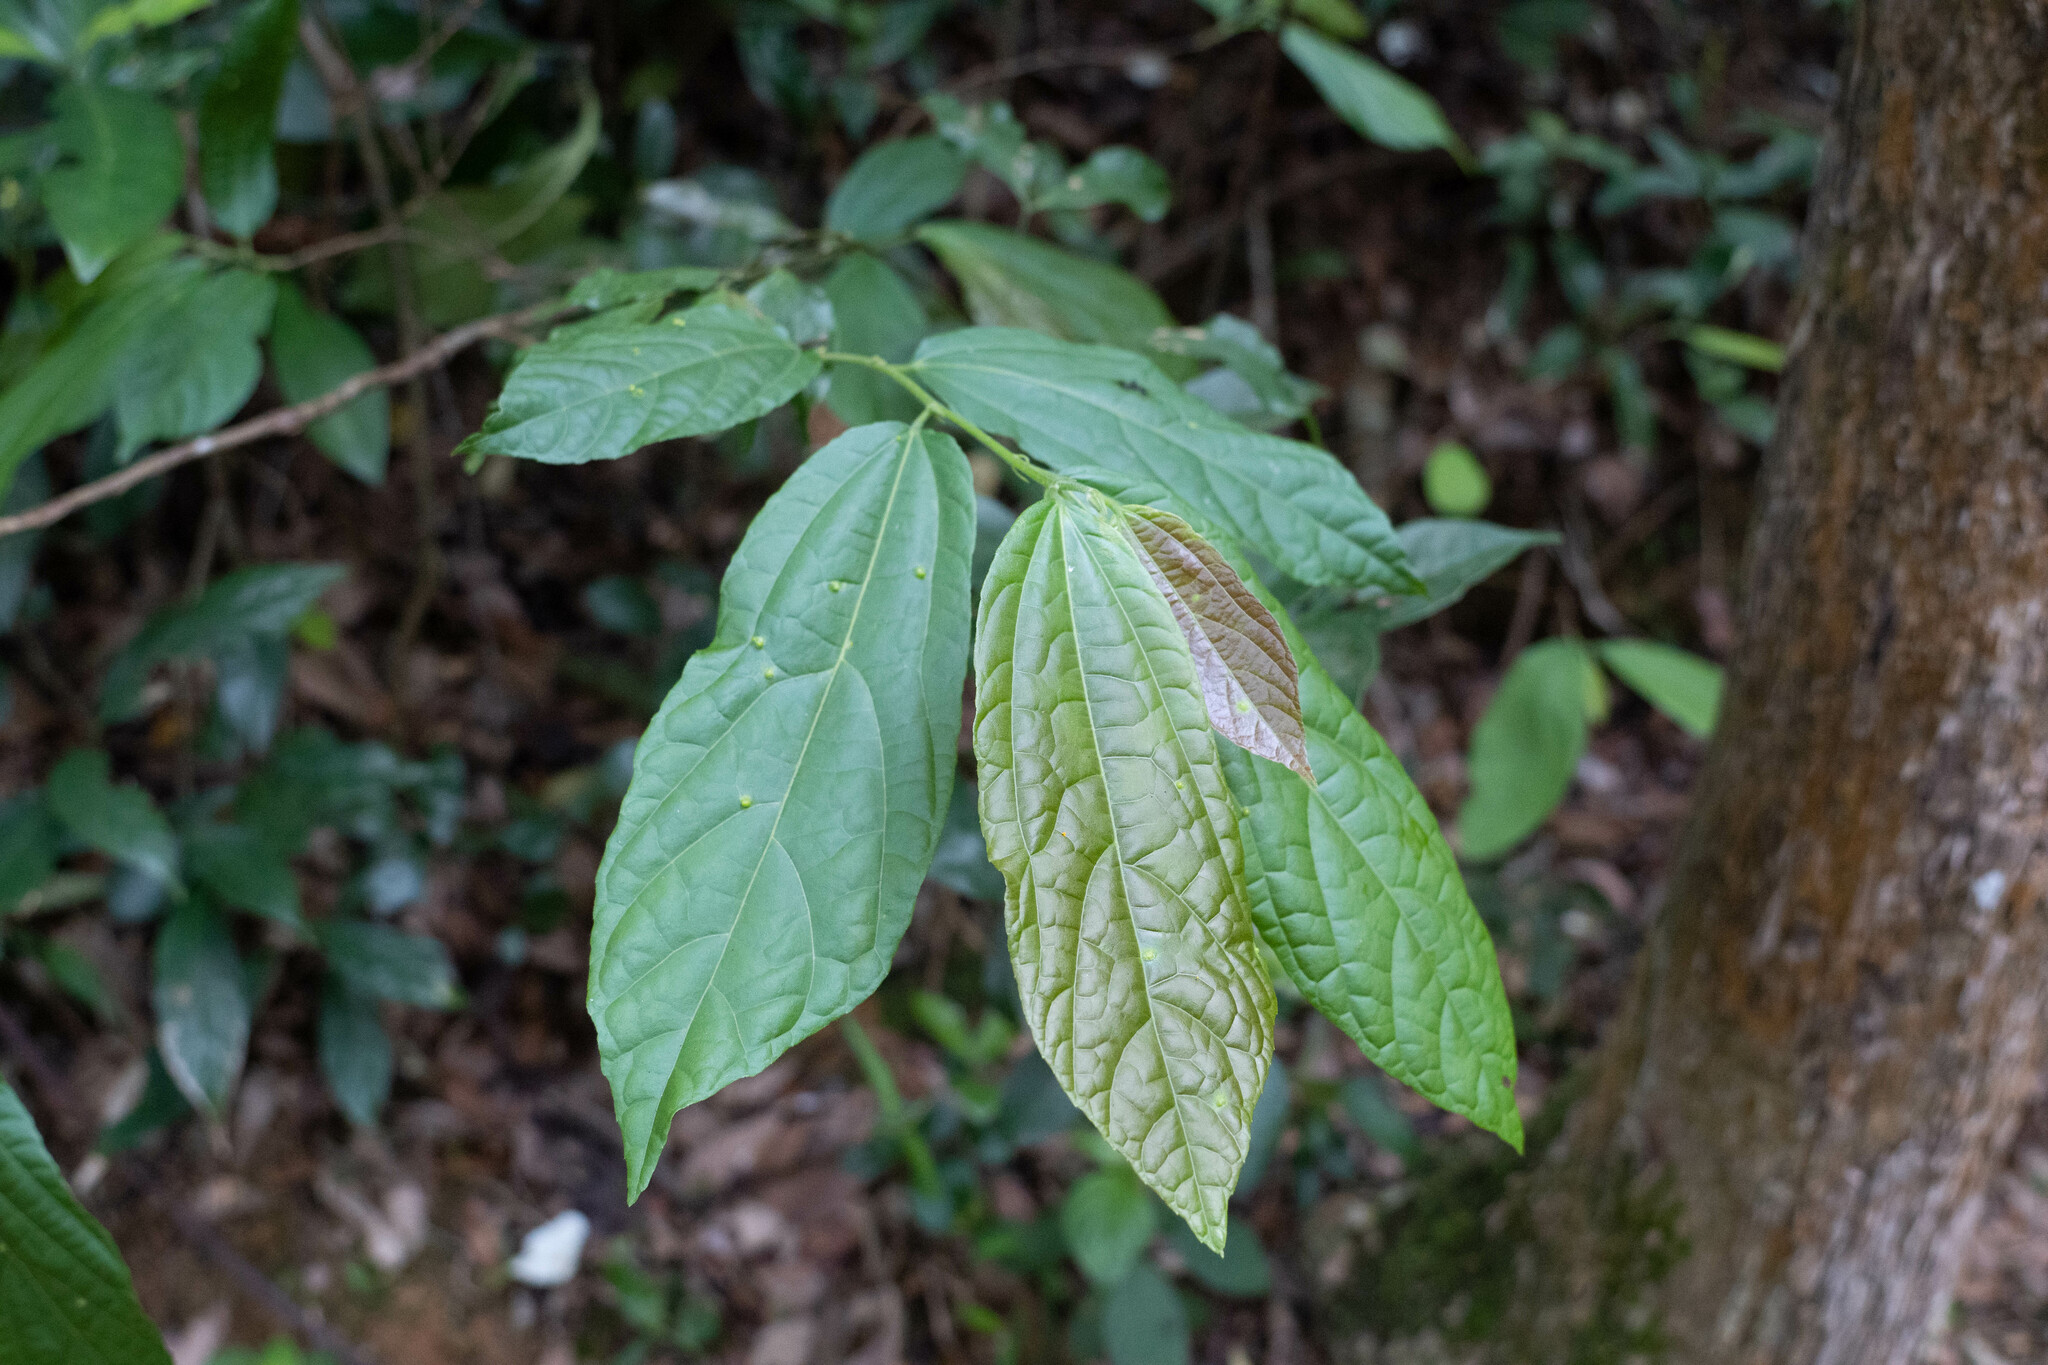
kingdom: Plantae
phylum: Tracheophyta
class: Magnoliopsida
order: Malvales
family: Malvaceae
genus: Microcos
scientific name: Microcos paniculata
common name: Microcos
